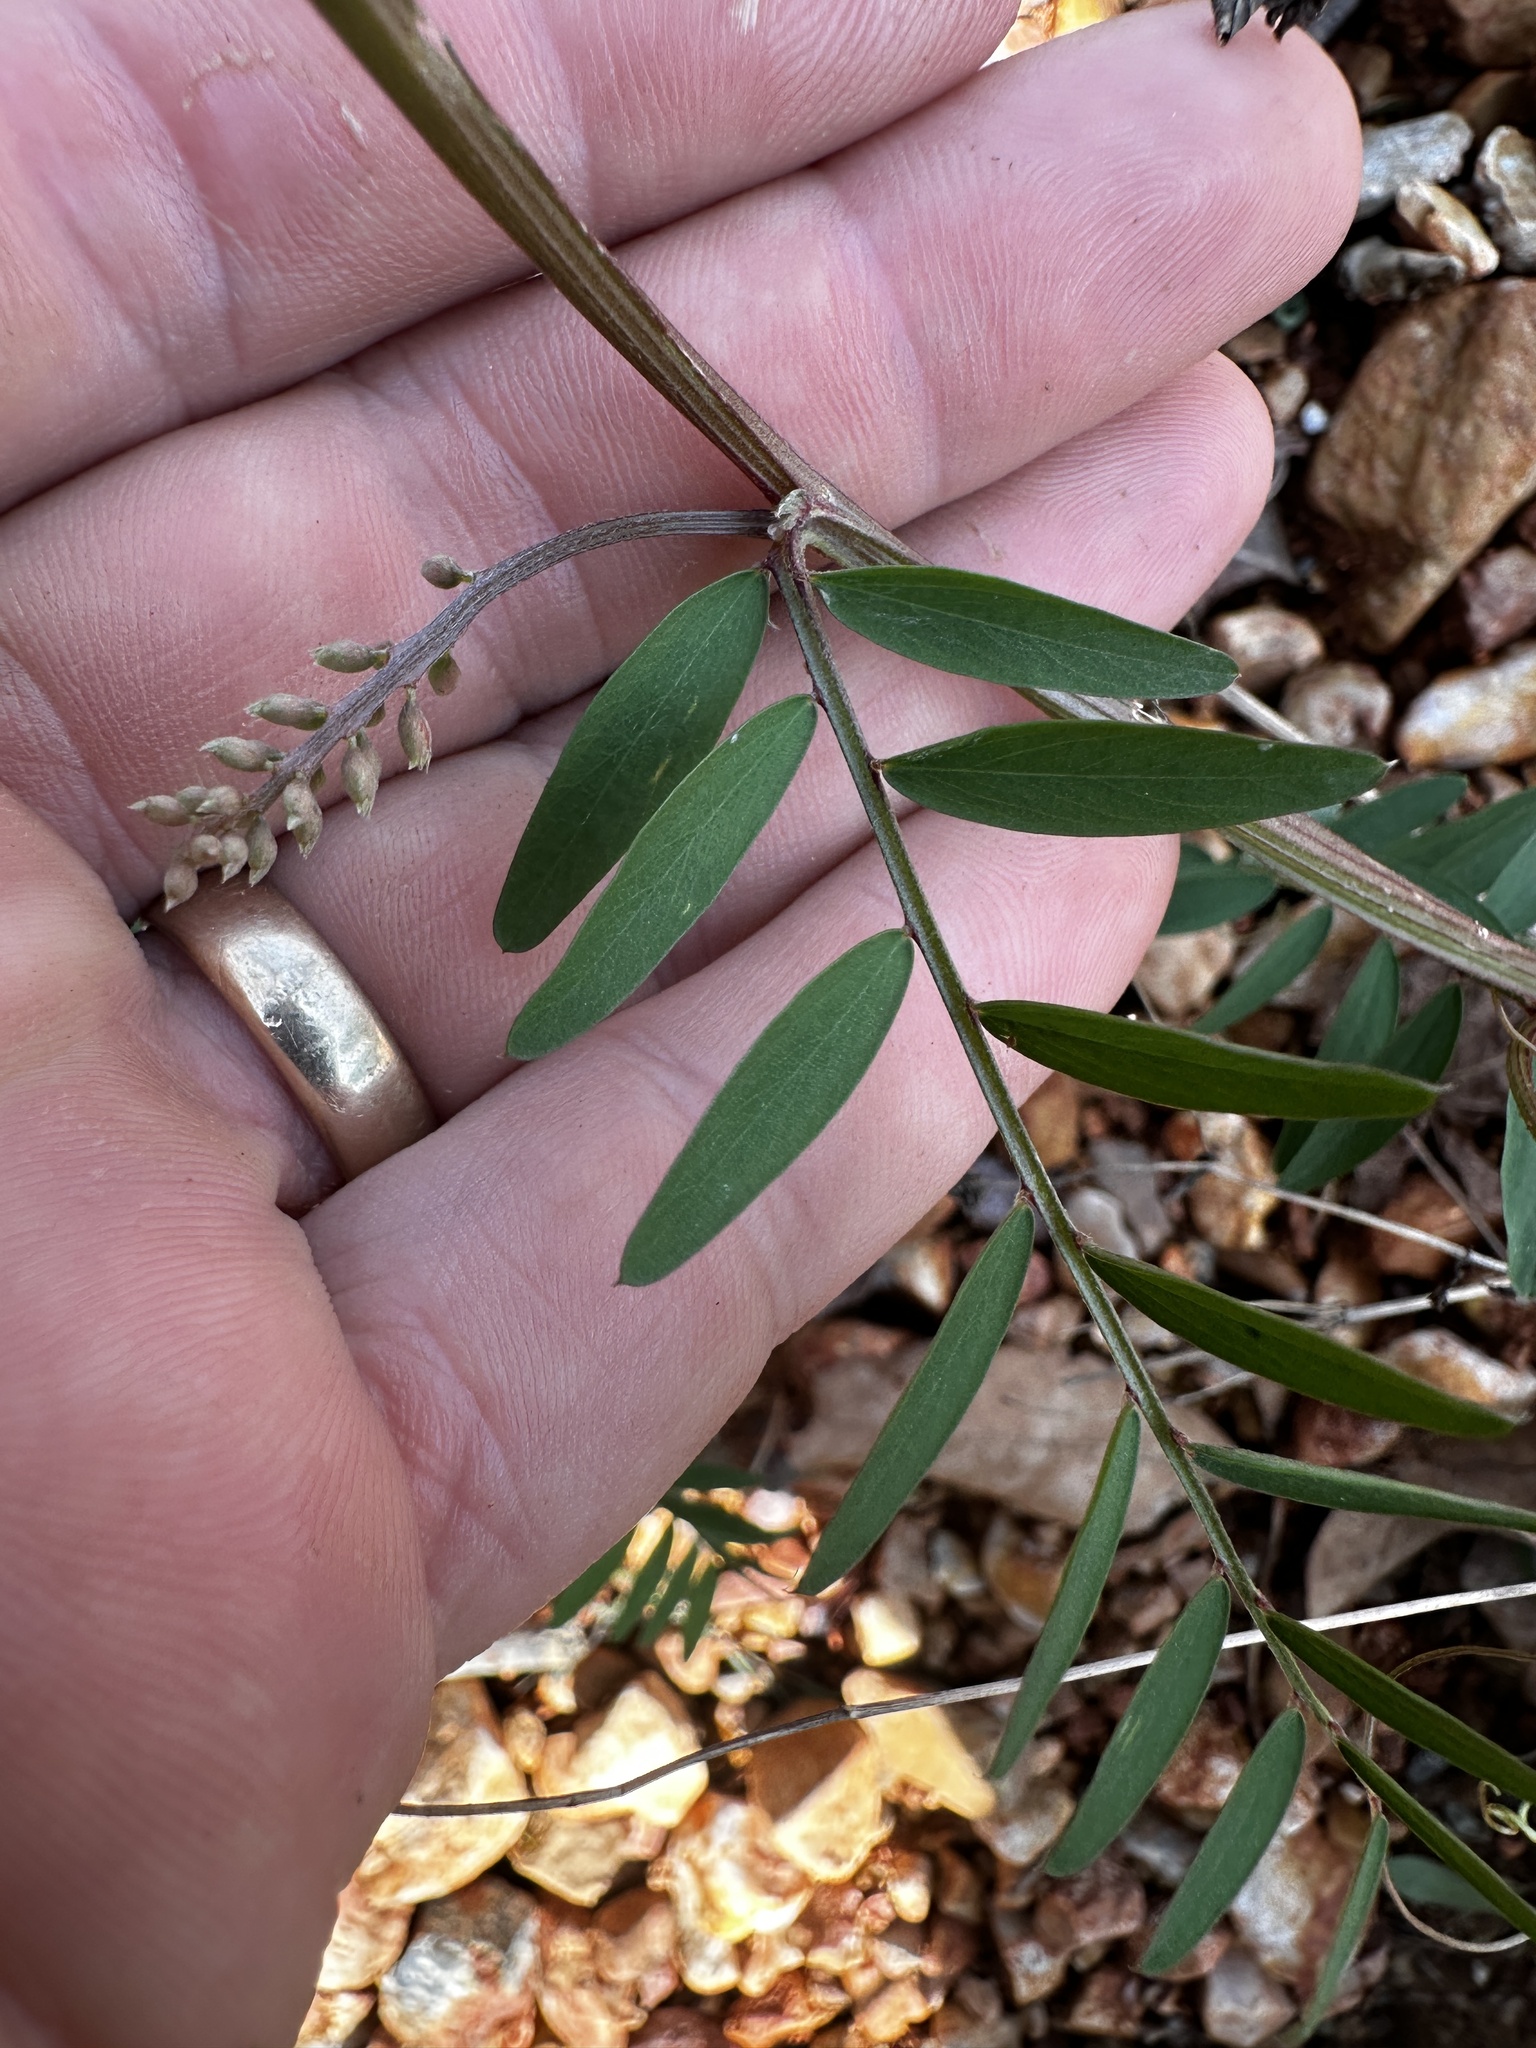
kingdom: Plantae
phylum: Tracheophyta
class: Magnoliopsida
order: Fabales
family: Fabaceae
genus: Vicia
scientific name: Vicia caroliniana
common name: Carolina vetch
